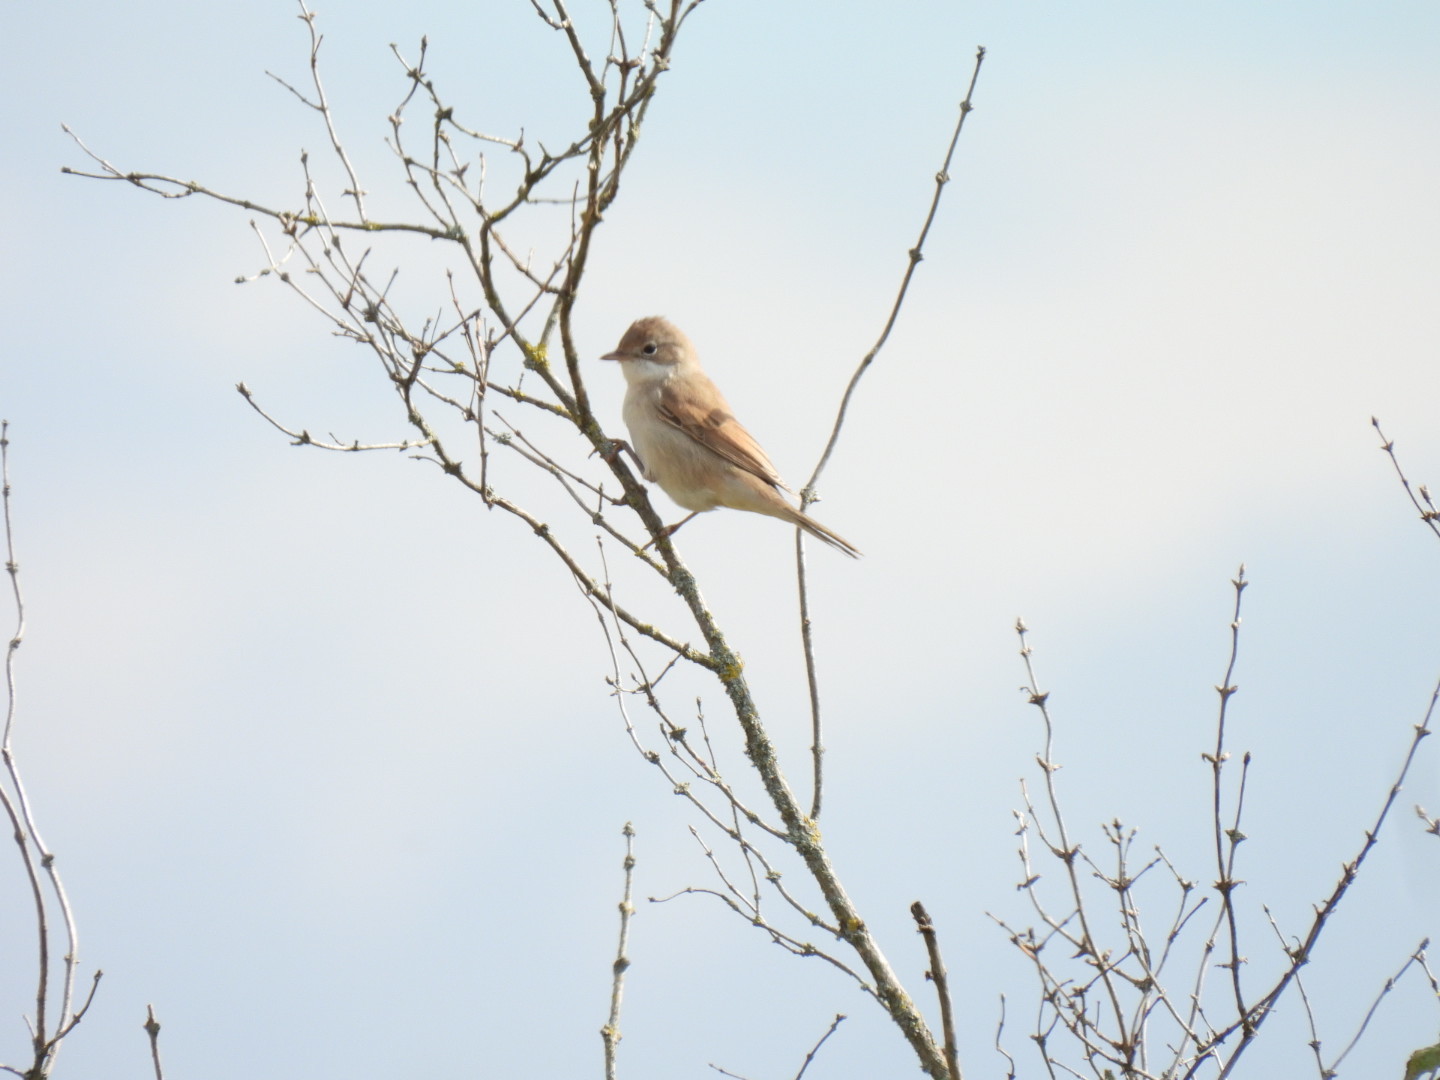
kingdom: Animalia
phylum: Chordata
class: Aves
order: Passeriformes
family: Sylviidae
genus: Sylvia
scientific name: Sylvia communis
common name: Common whitethroat
